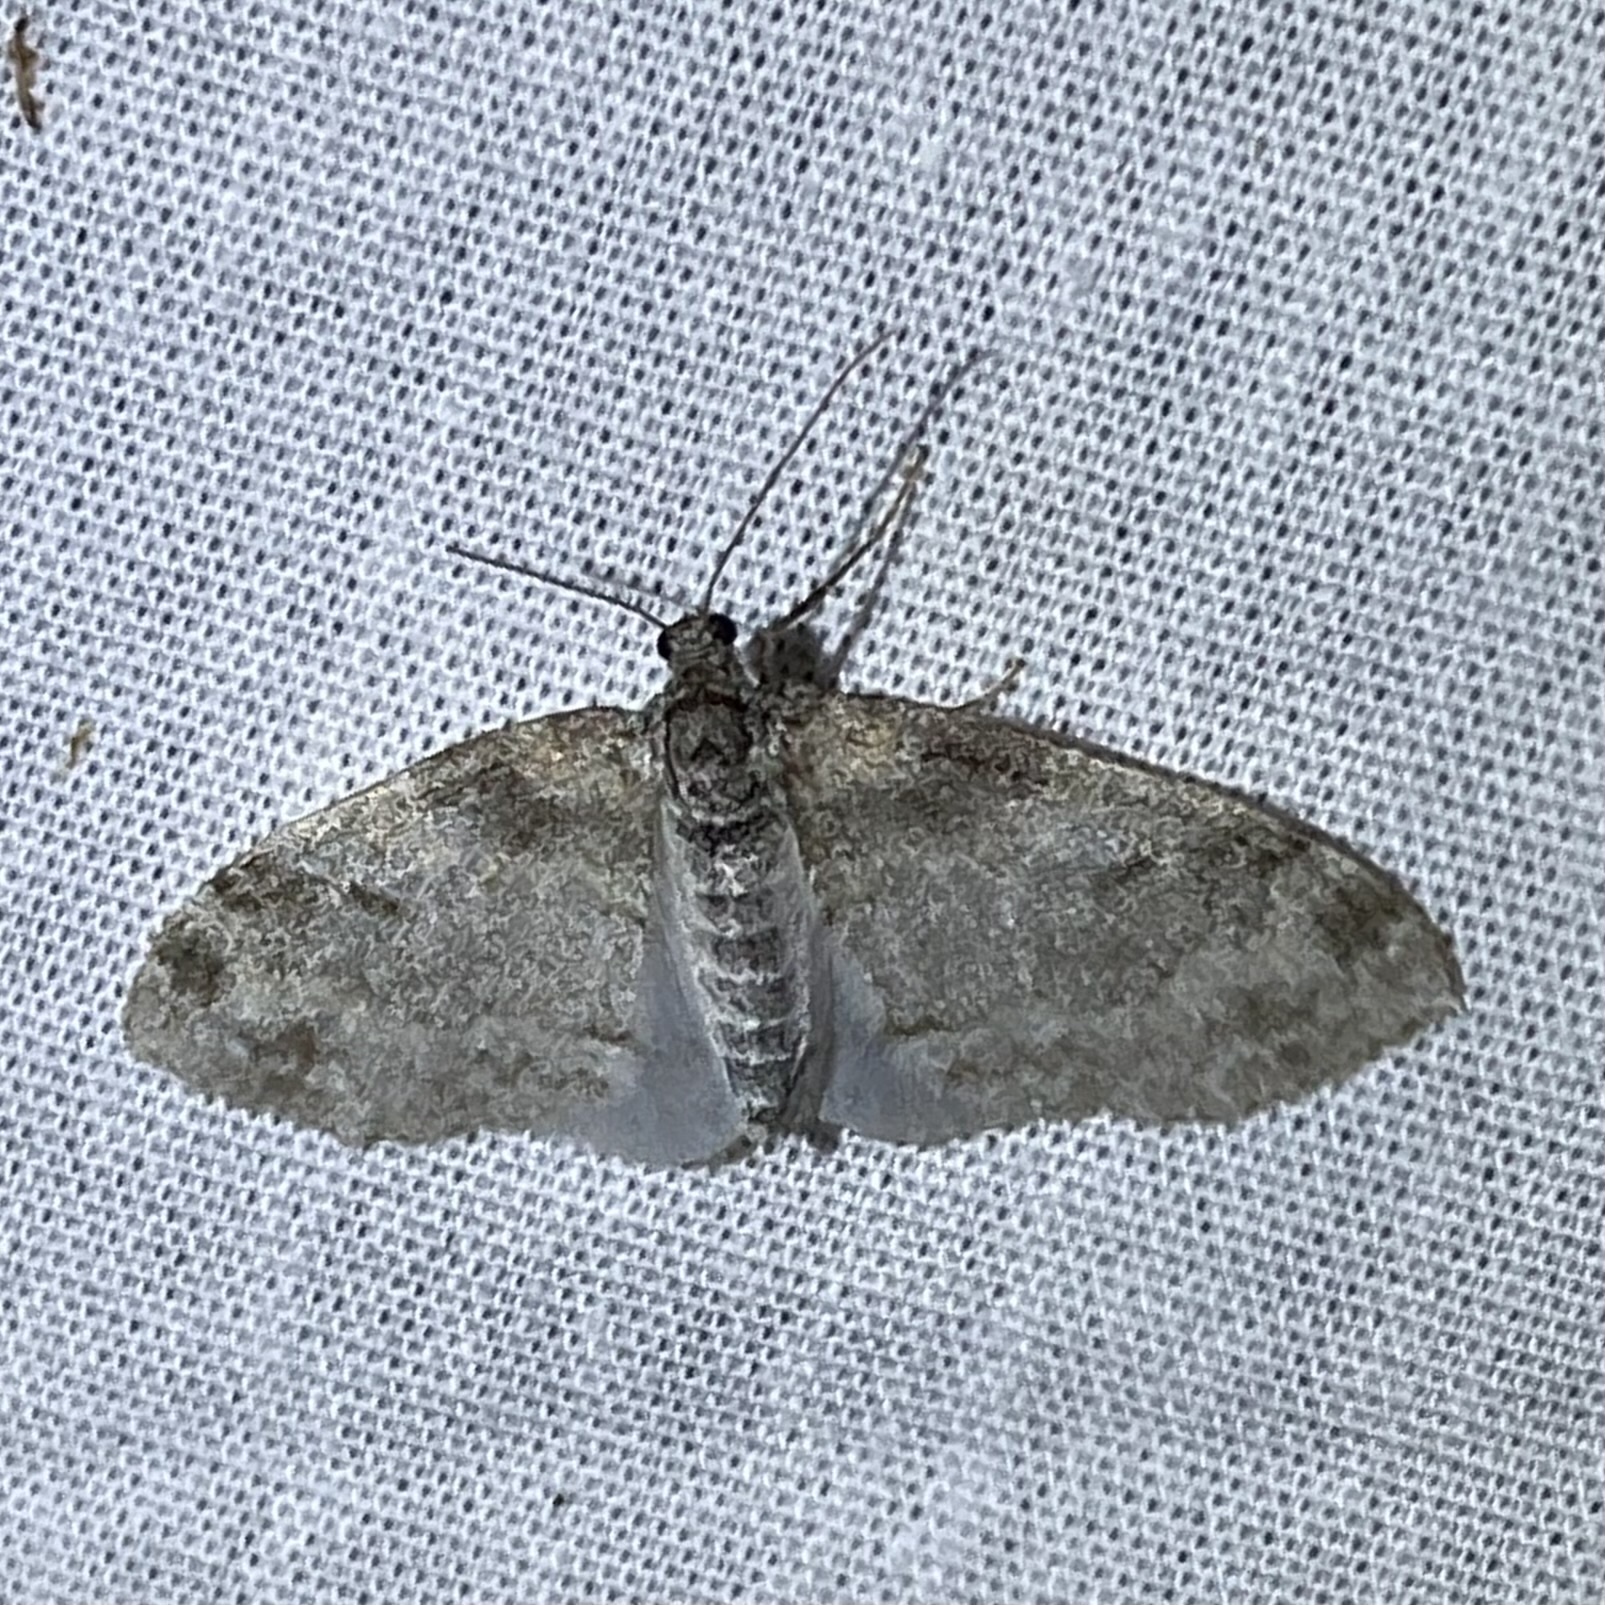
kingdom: Animalia
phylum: Arthropoda
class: Insecta
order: Lepidoptera
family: Geometridae
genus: Lobophora
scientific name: Lobophora nivigerata
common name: Powdered bigwing
